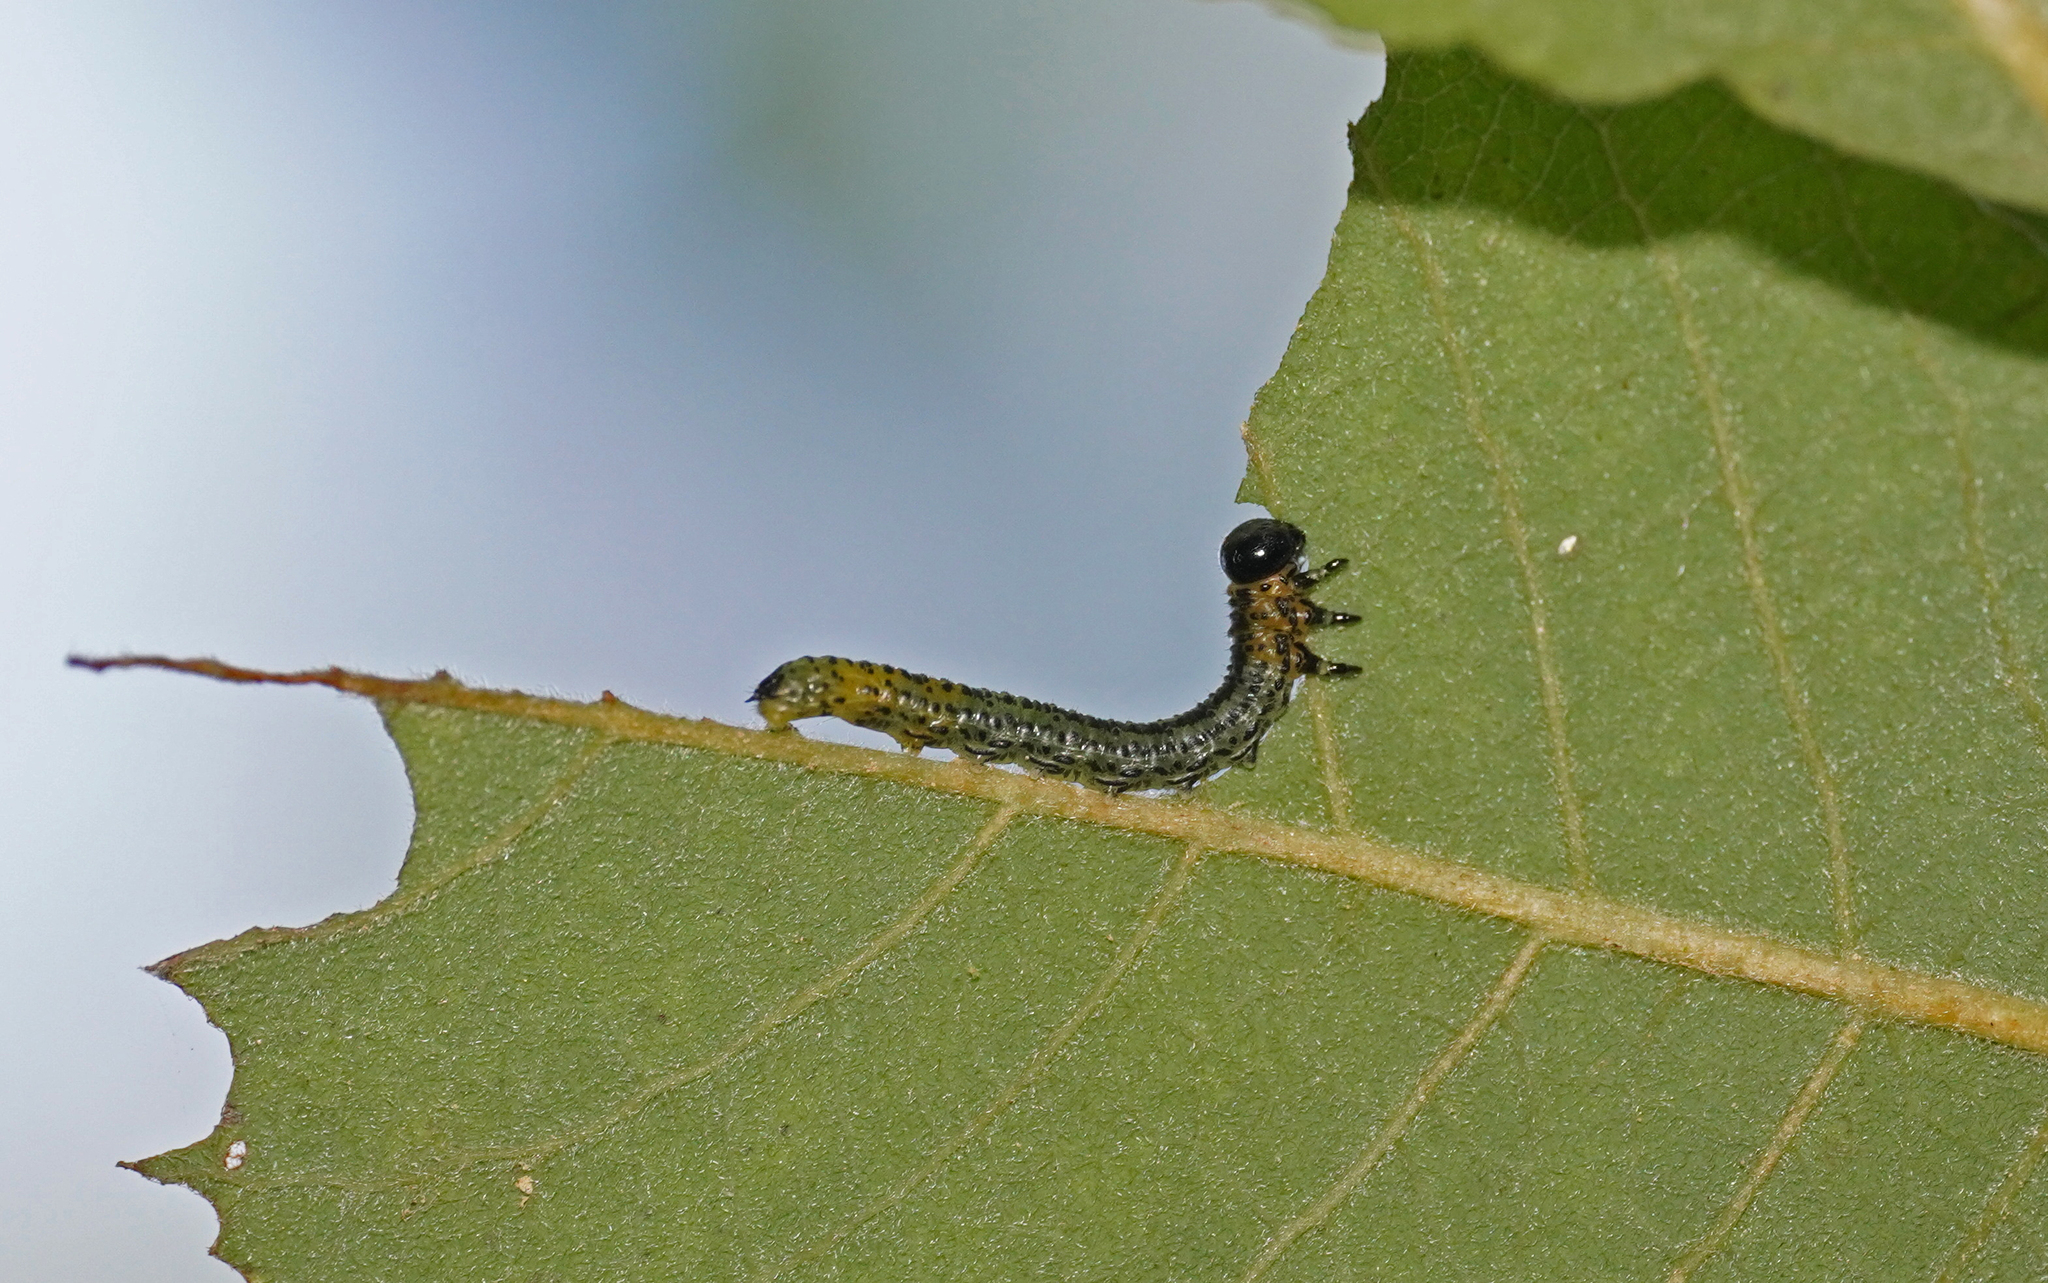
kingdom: Animalia
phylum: Arthropoda
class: Insecta
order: Hymenoptera
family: Tenthredinidae
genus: Nematus
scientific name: Nematus miliaris
